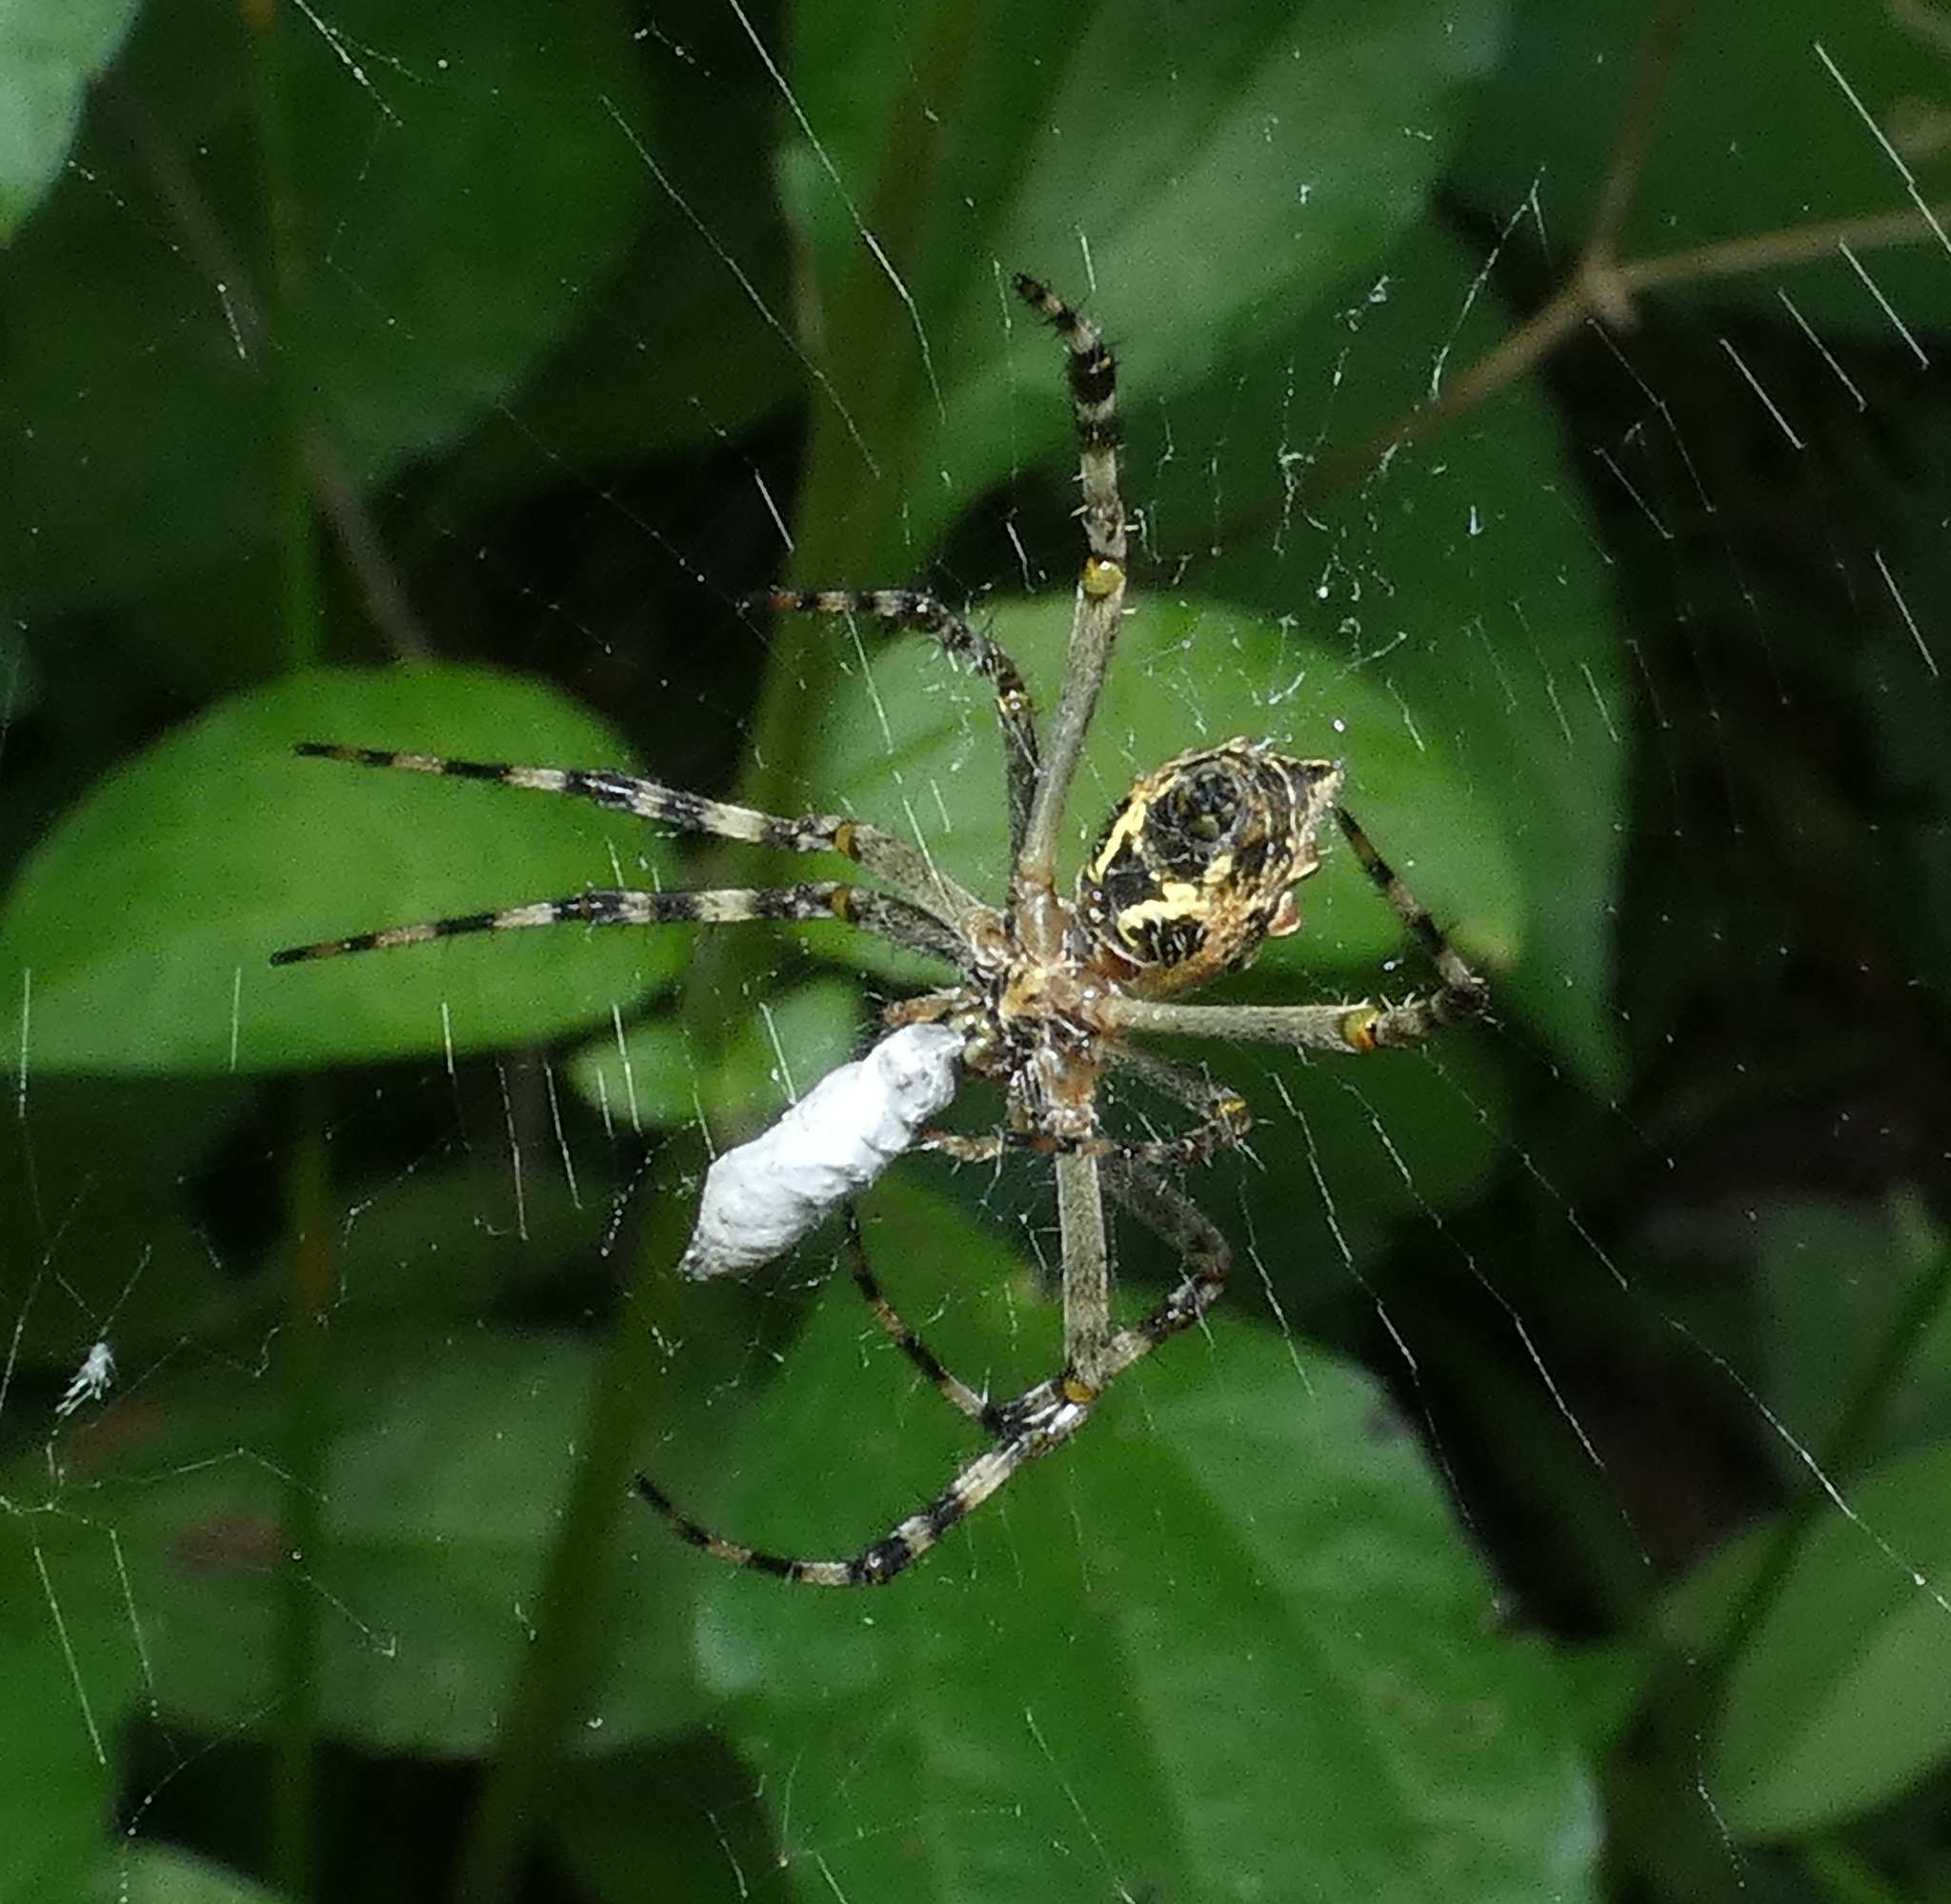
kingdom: Animalia
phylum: Arthropoda
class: Arachnida
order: Araneae
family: Araneidae
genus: Argiope
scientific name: Argiope argentata
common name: Orb weavers
